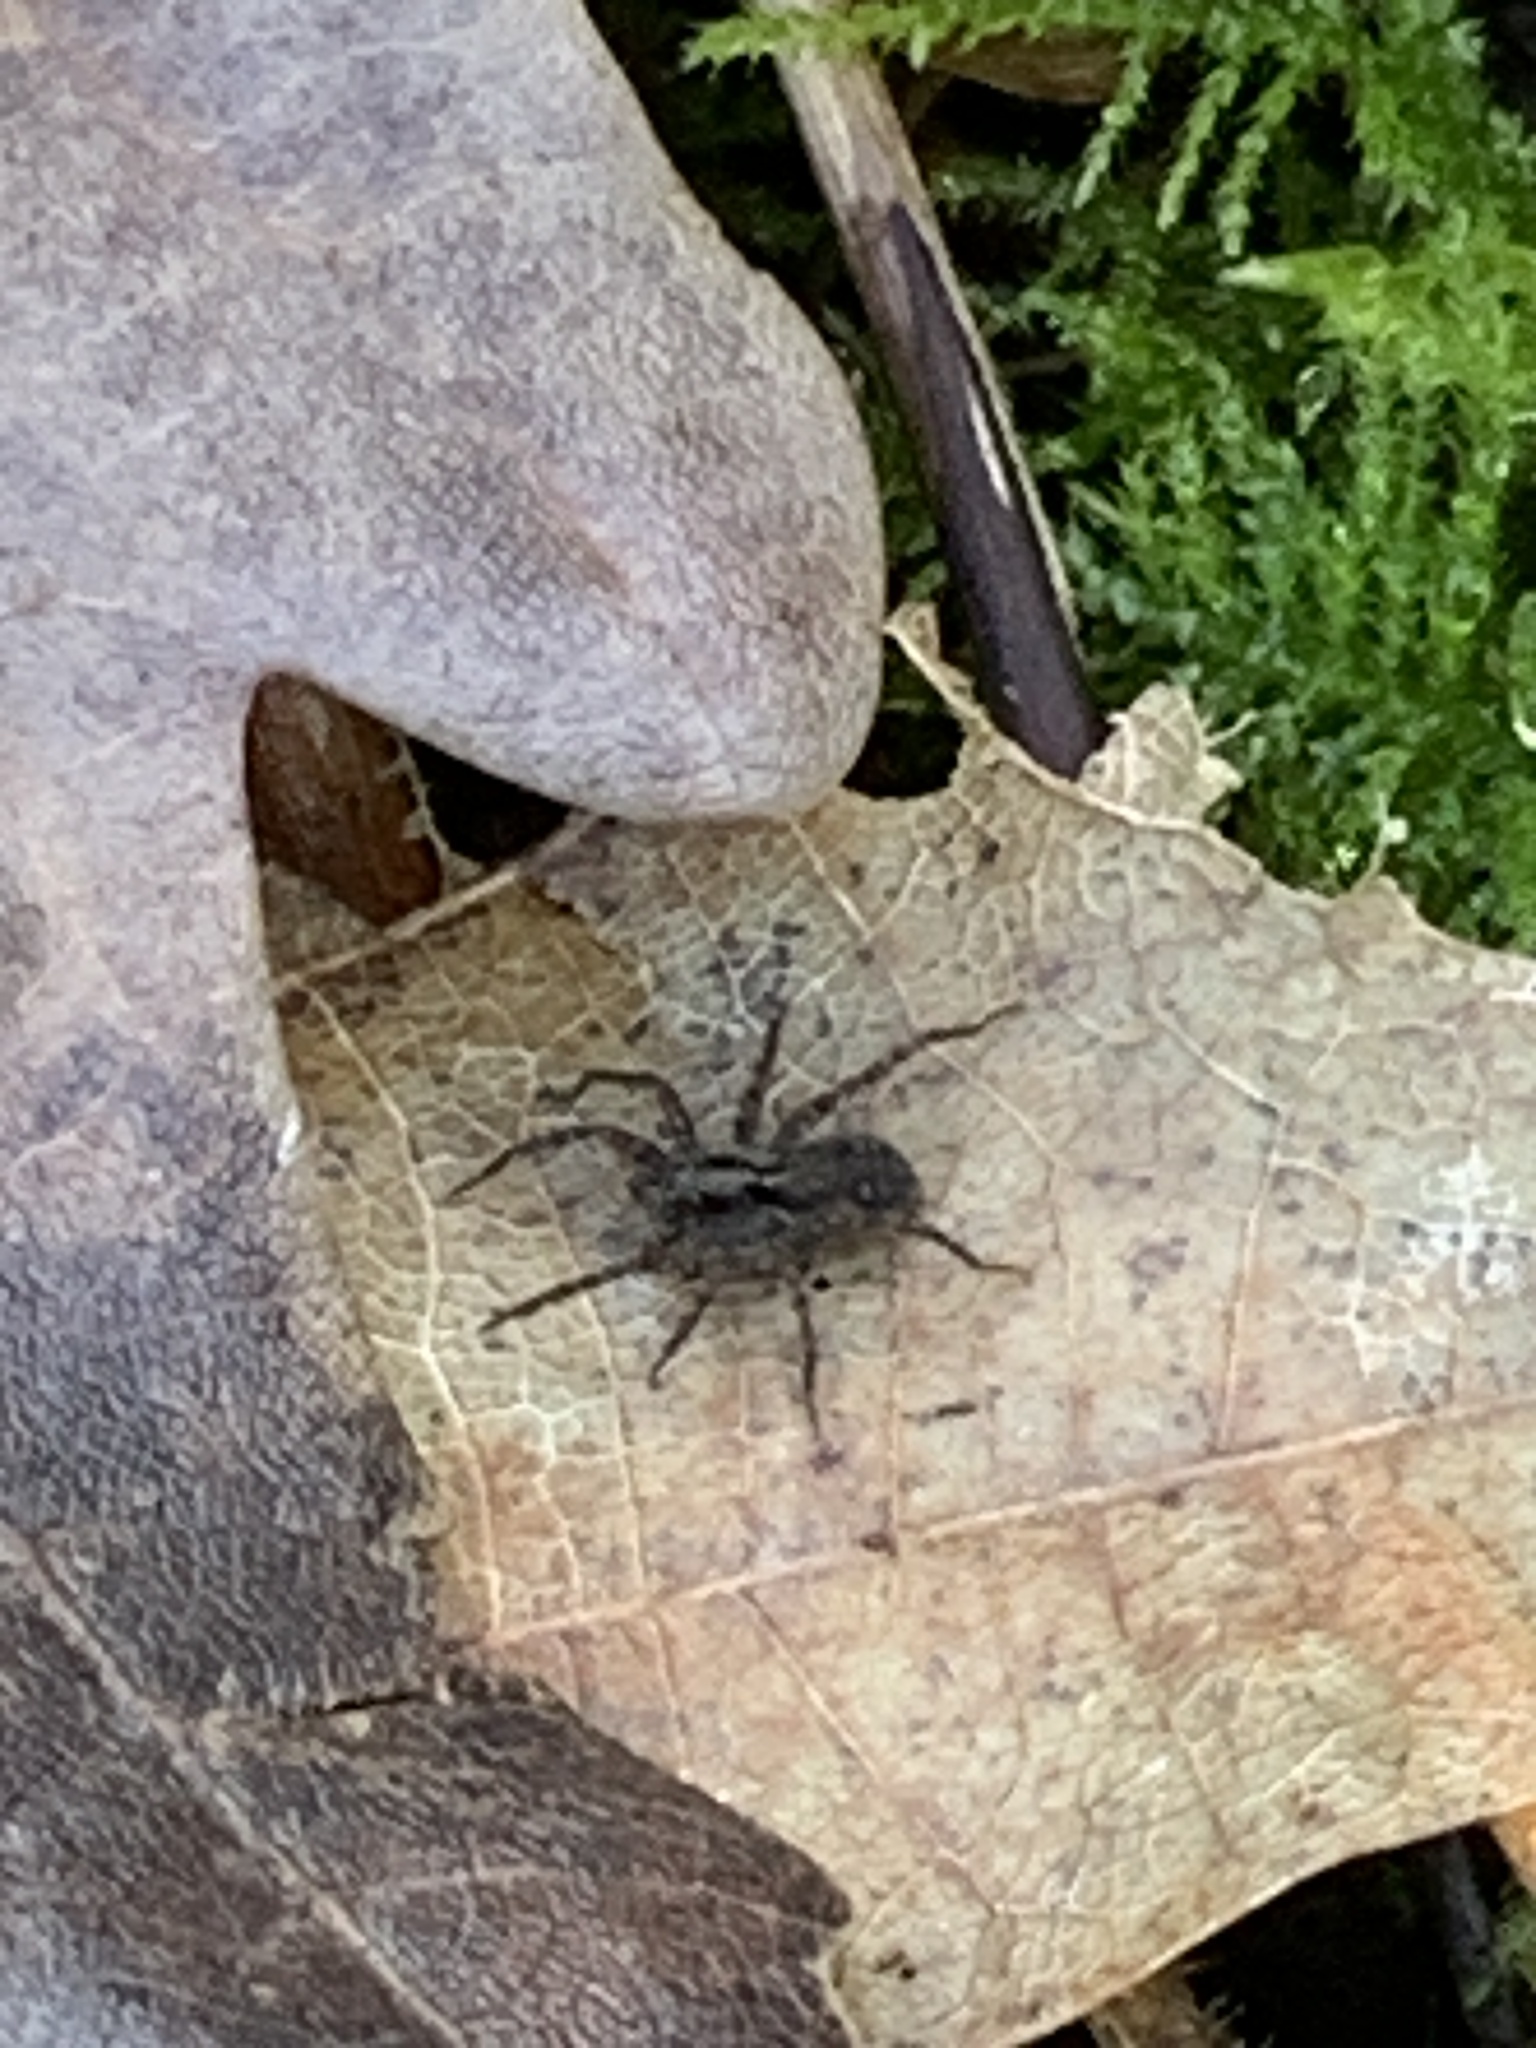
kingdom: Animalia
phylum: Arthropoda
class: Arachnida
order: Araneae
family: Lycosidae
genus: Pardosa
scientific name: Pardosa amentata
